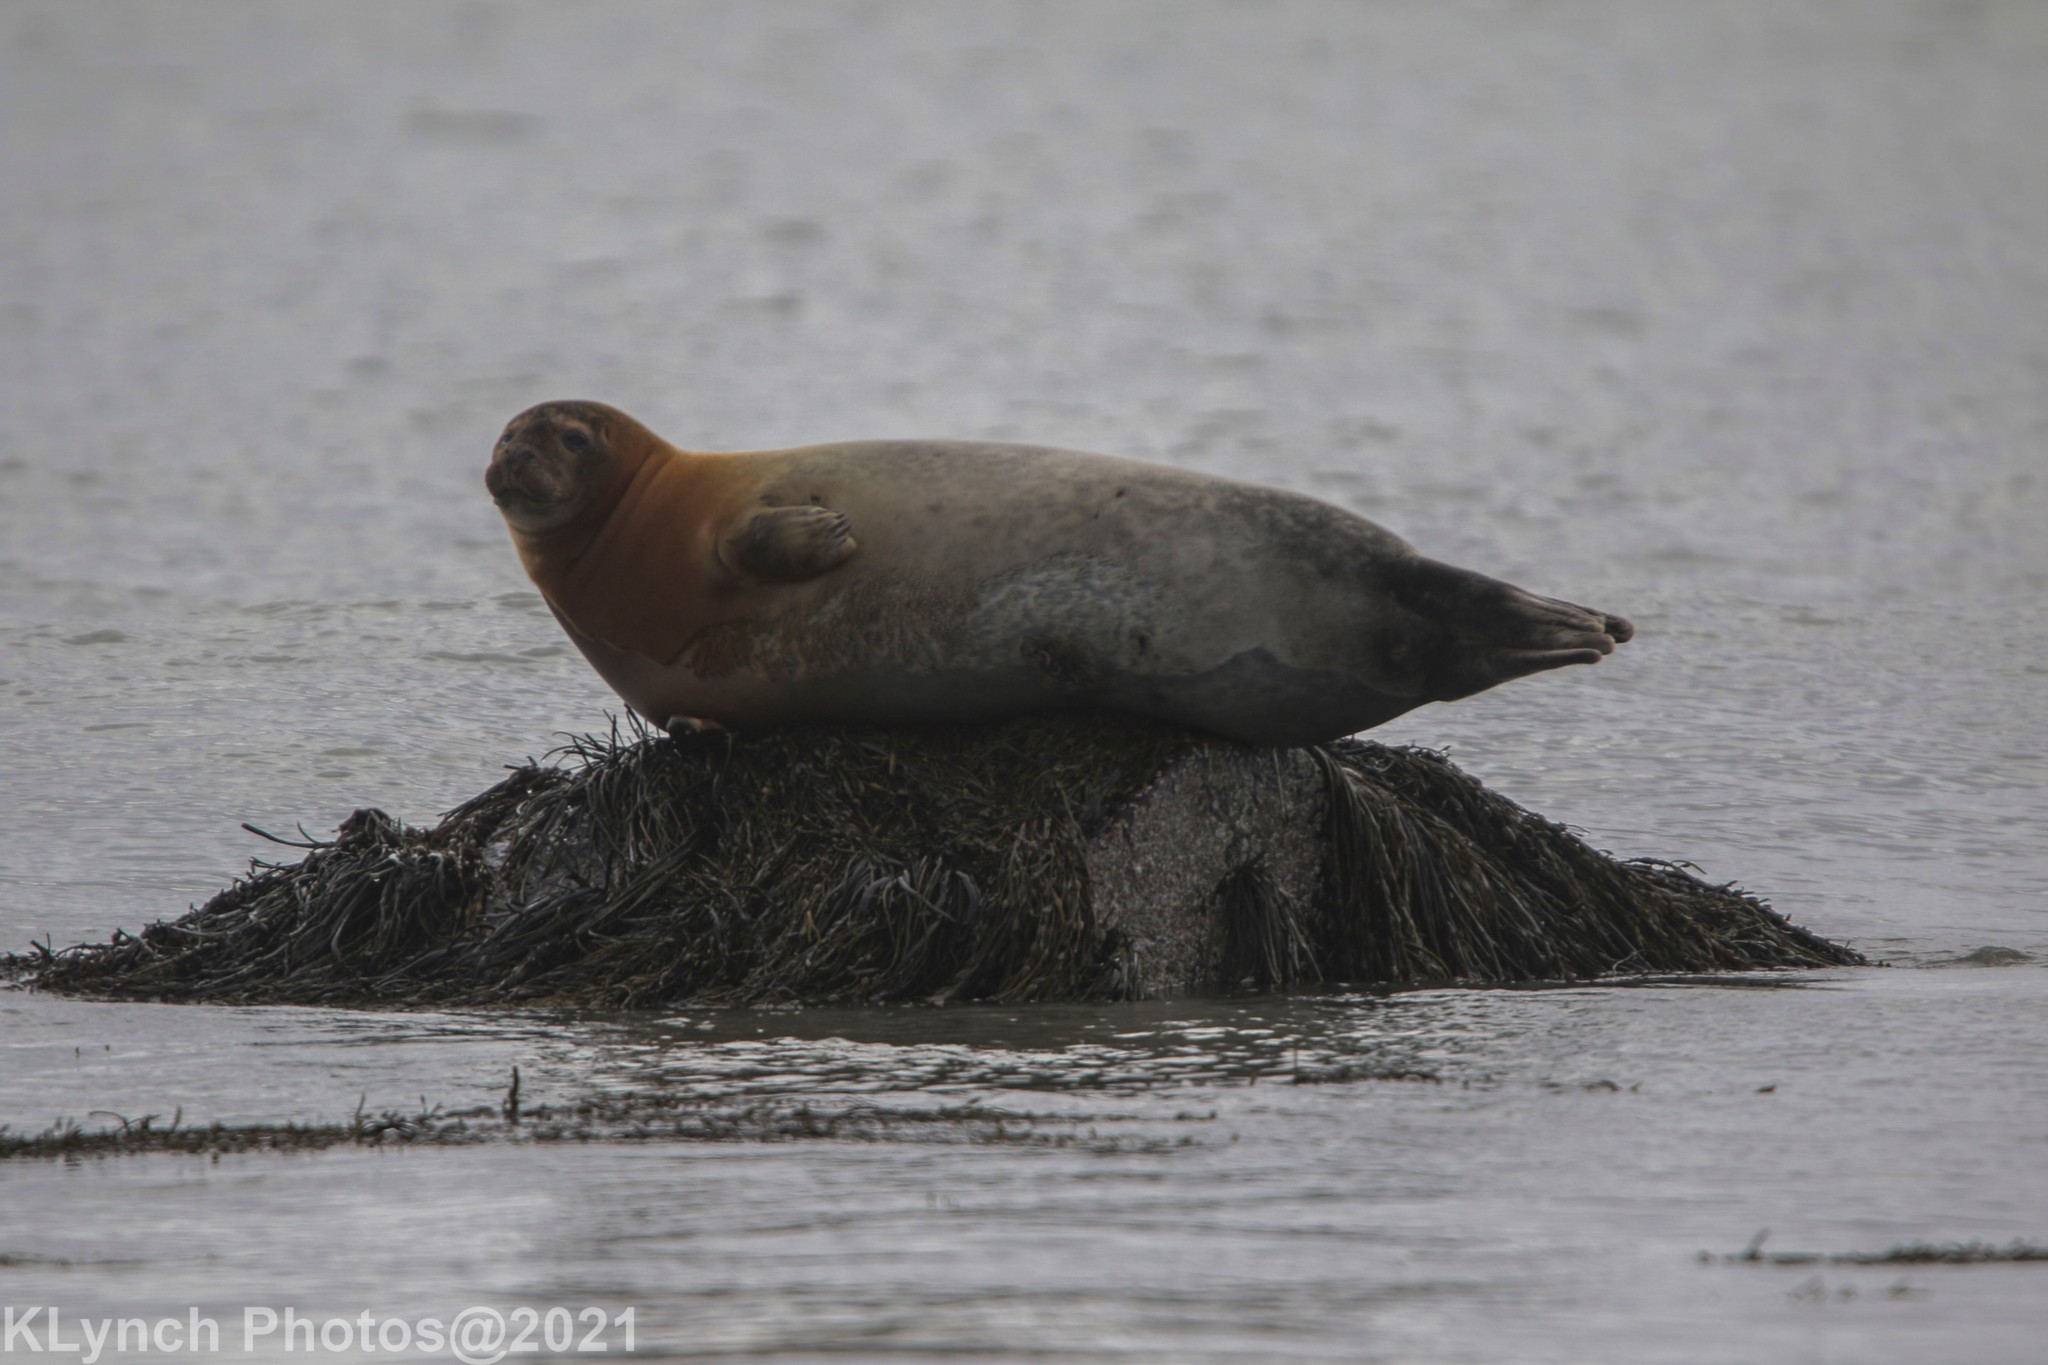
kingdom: Animalia
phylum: Chordata
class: Mammalia
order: Carnivora
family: Phocidae
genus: Phoca
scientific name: Phoca vitulina
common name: Harbor seal
